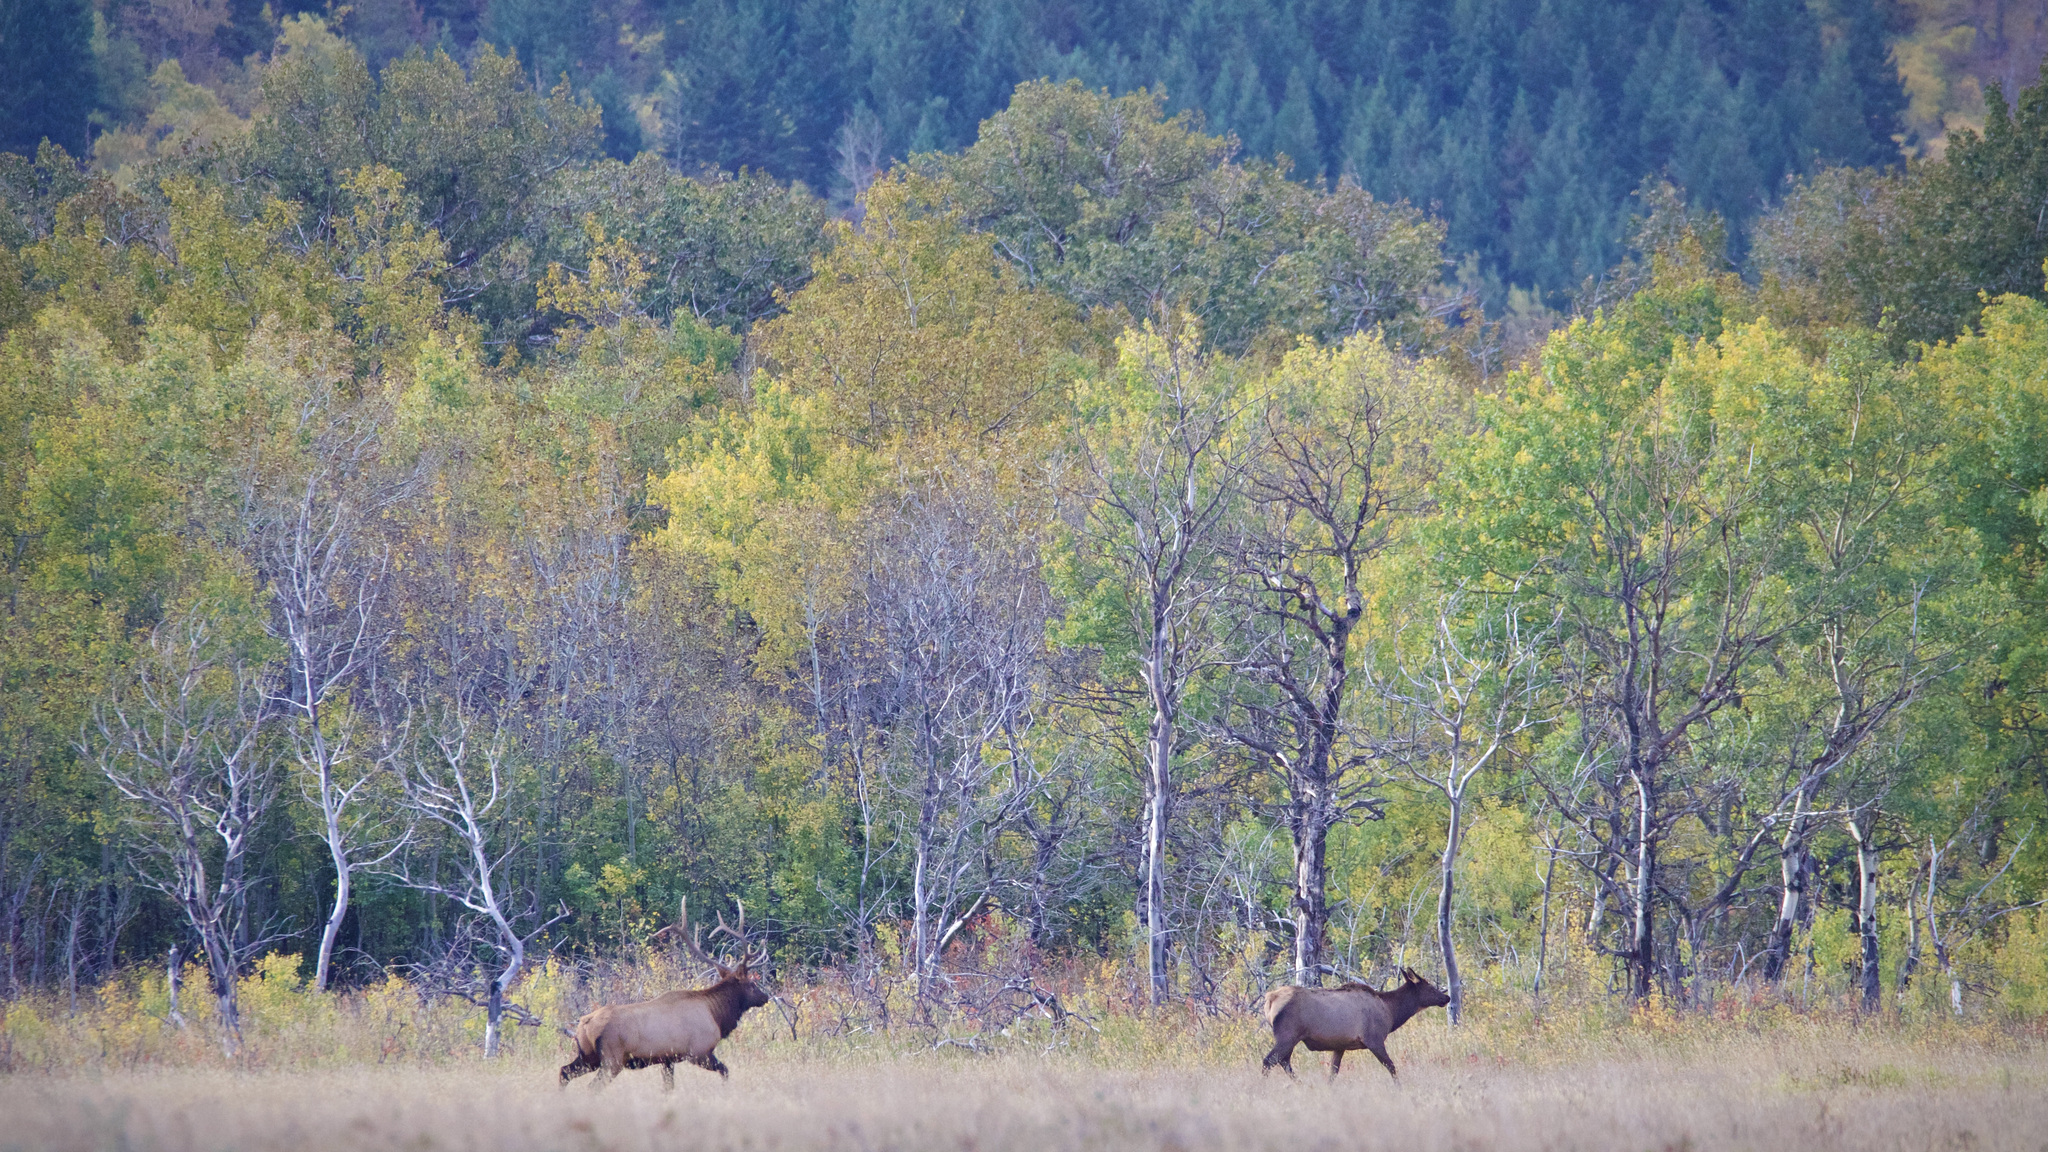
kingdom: Animalia
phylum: Chordata
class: Mammalia
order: Artiodactyla
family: Cervidae
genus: Cervus
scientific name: Cervus elaphus
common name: Red deer
